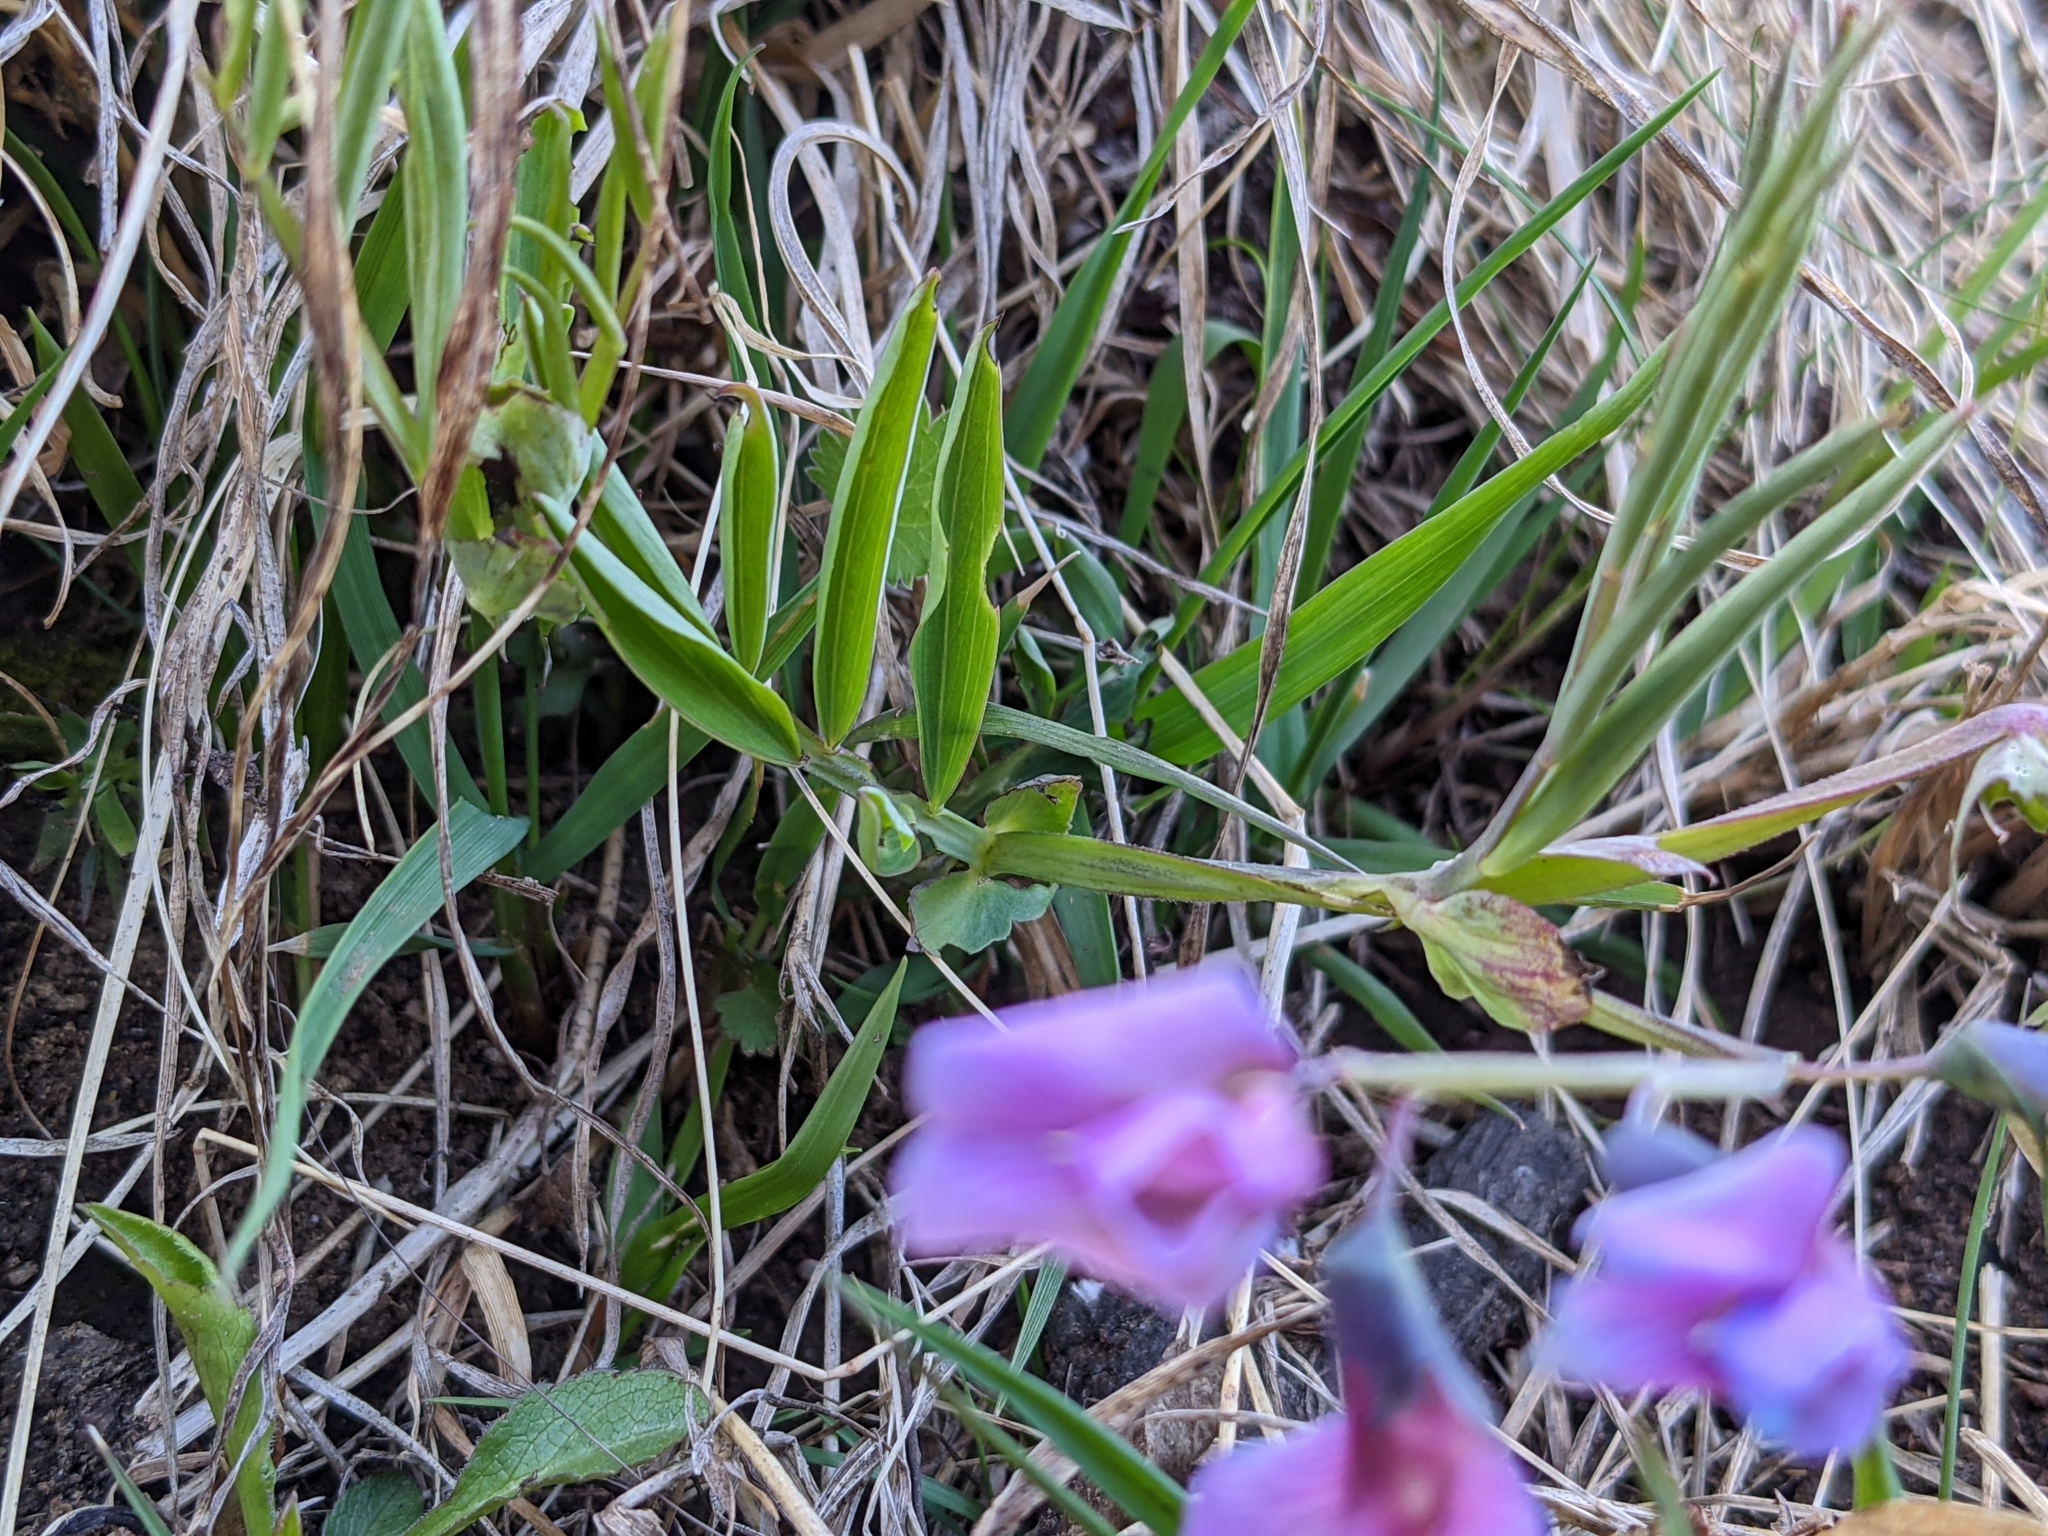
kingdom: Plantae
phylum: Tracheophyta
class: Magnoliopsida
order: Fabales
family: Fabaceae
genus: Lathyrus
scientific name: Lathyrus linifolius
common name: Bitter-vetch
